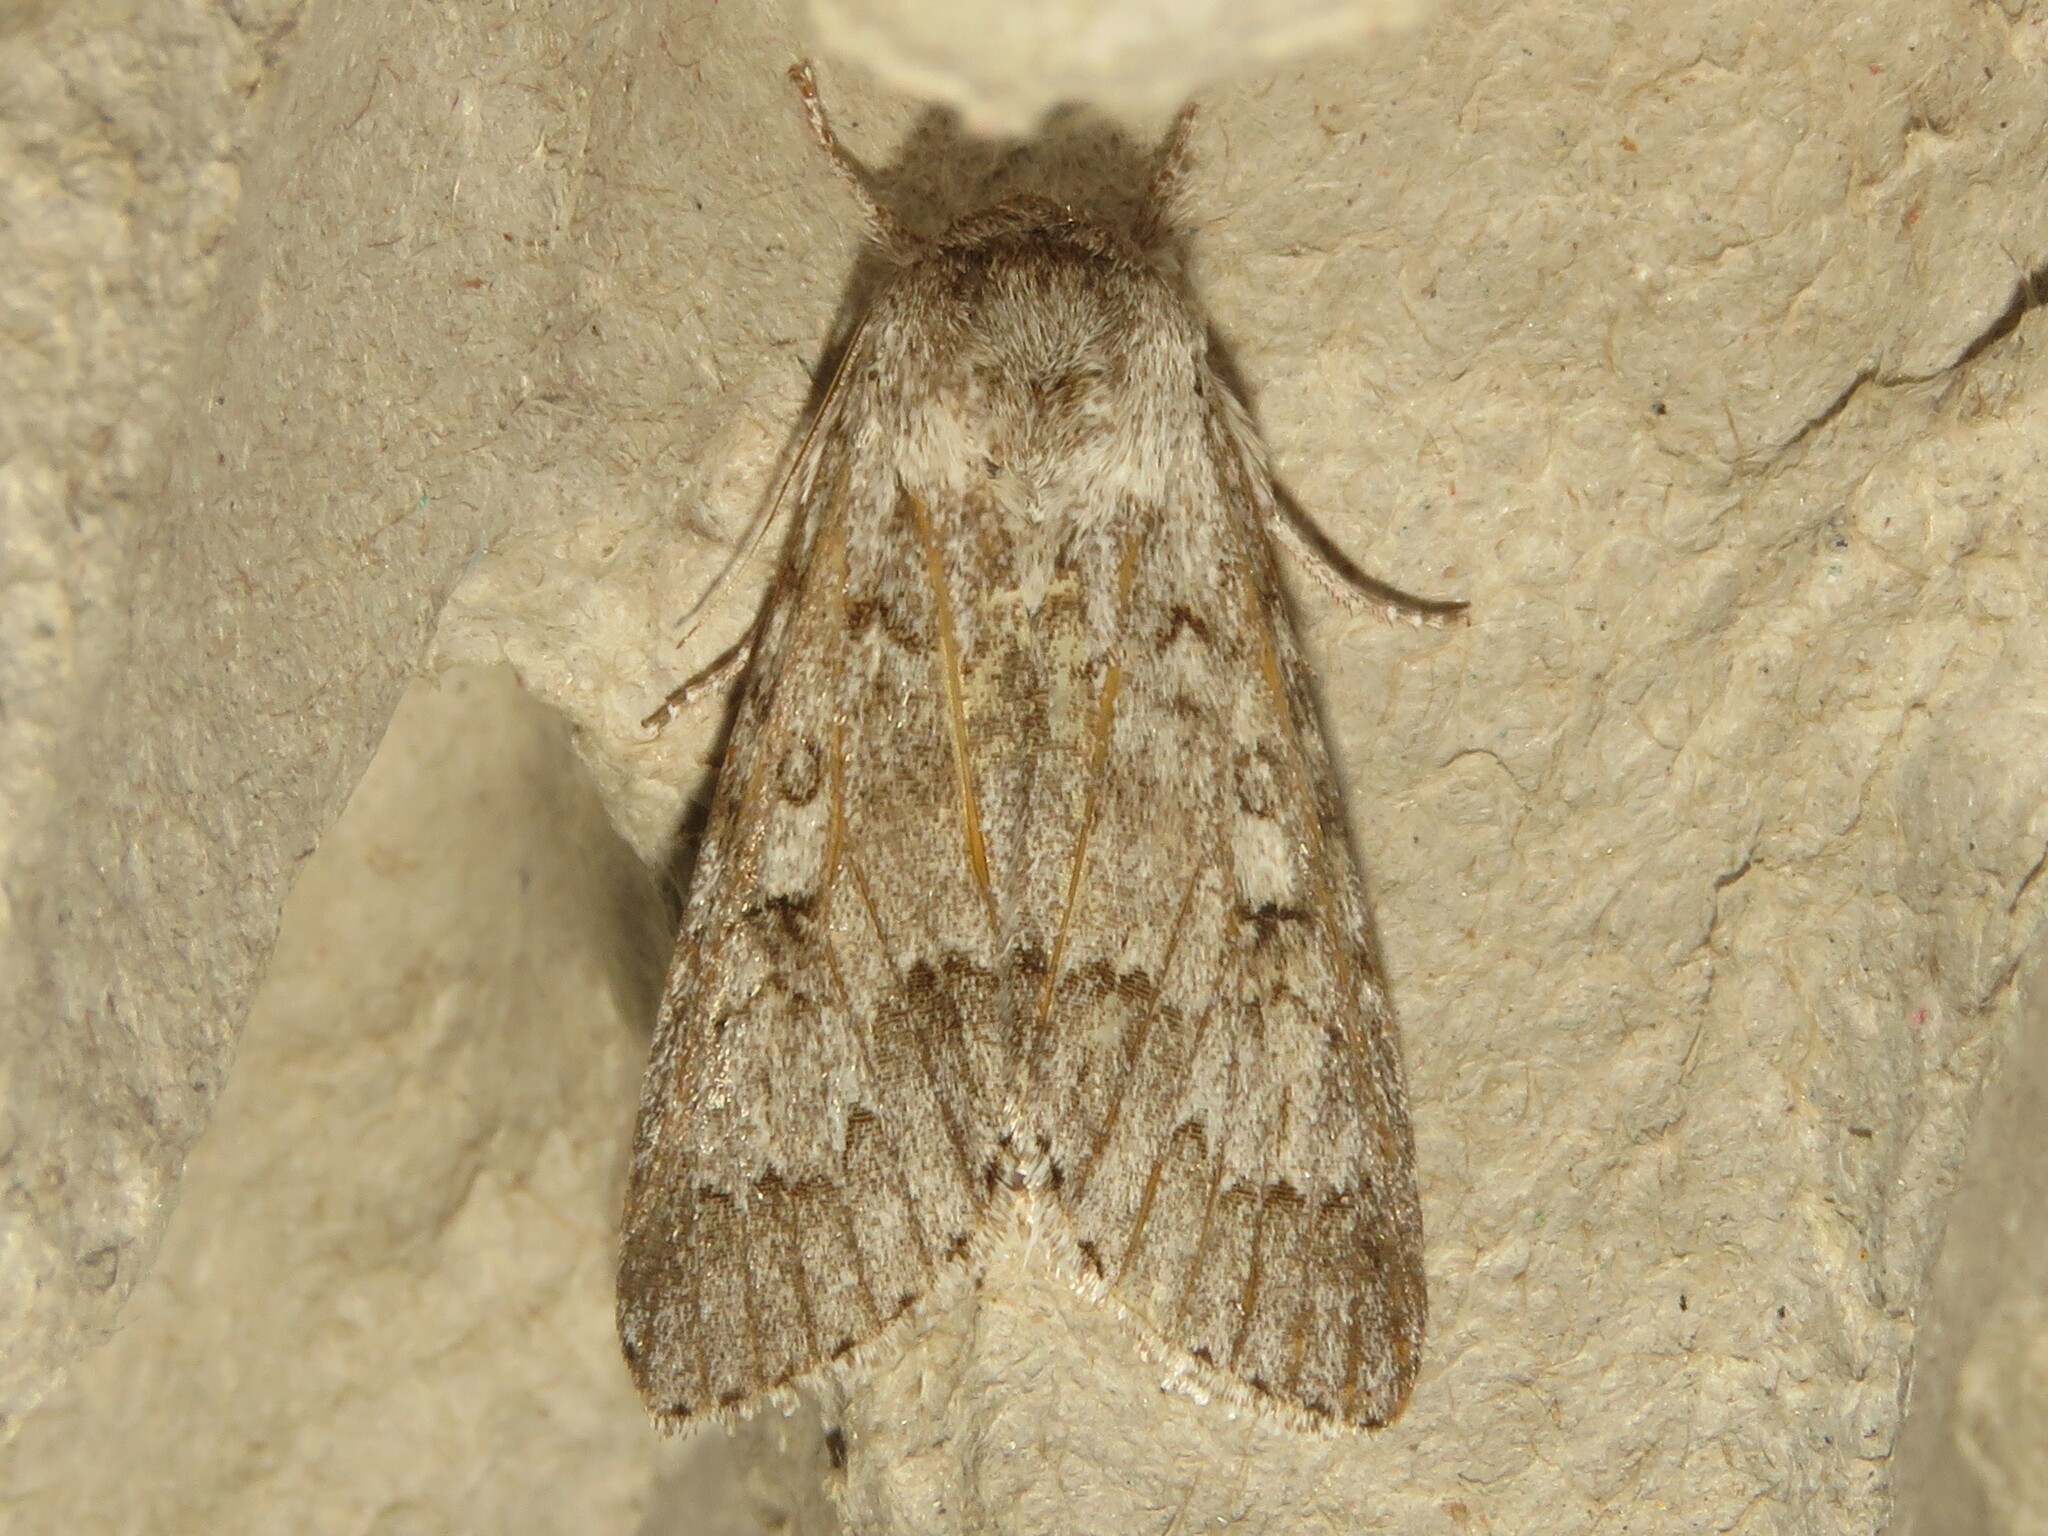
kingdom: Animalia
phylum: Arthropoda
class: Insecta
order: Lepidoptera
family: Noctuidae
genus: Acronicta
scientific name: Acronicta insita
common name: Large gray dagger
